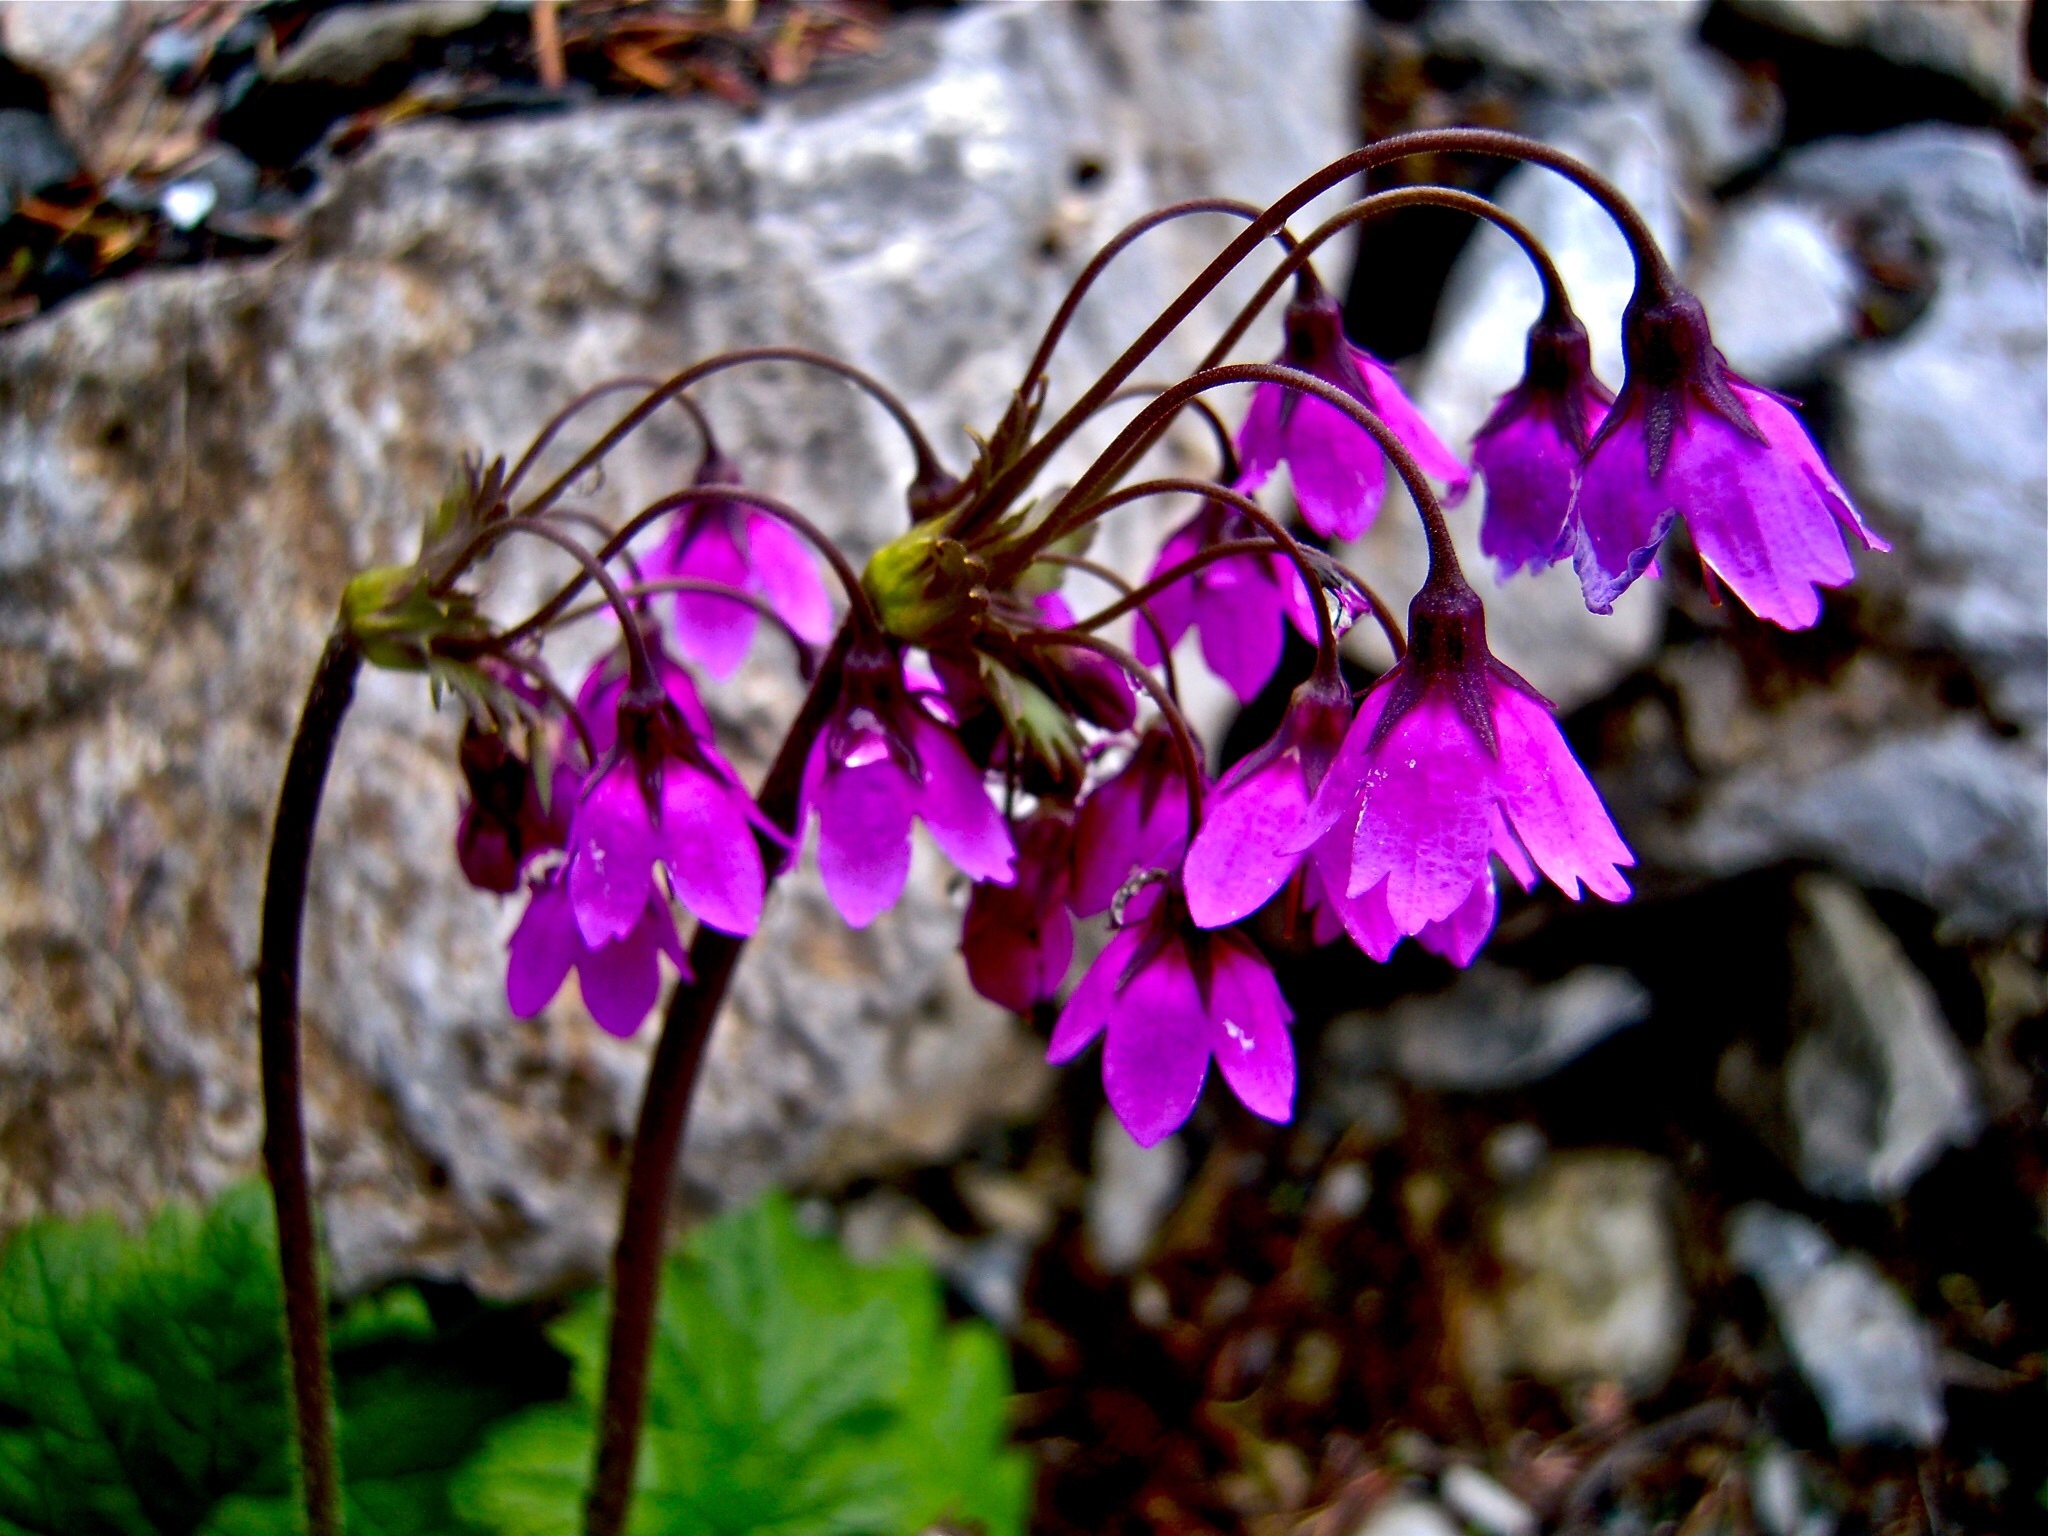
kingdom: Plantae
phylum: Tracheophyta
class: Magnoliopsida
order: Ericales
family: Primulaceae
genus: Primula
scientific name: Primula matthioli
